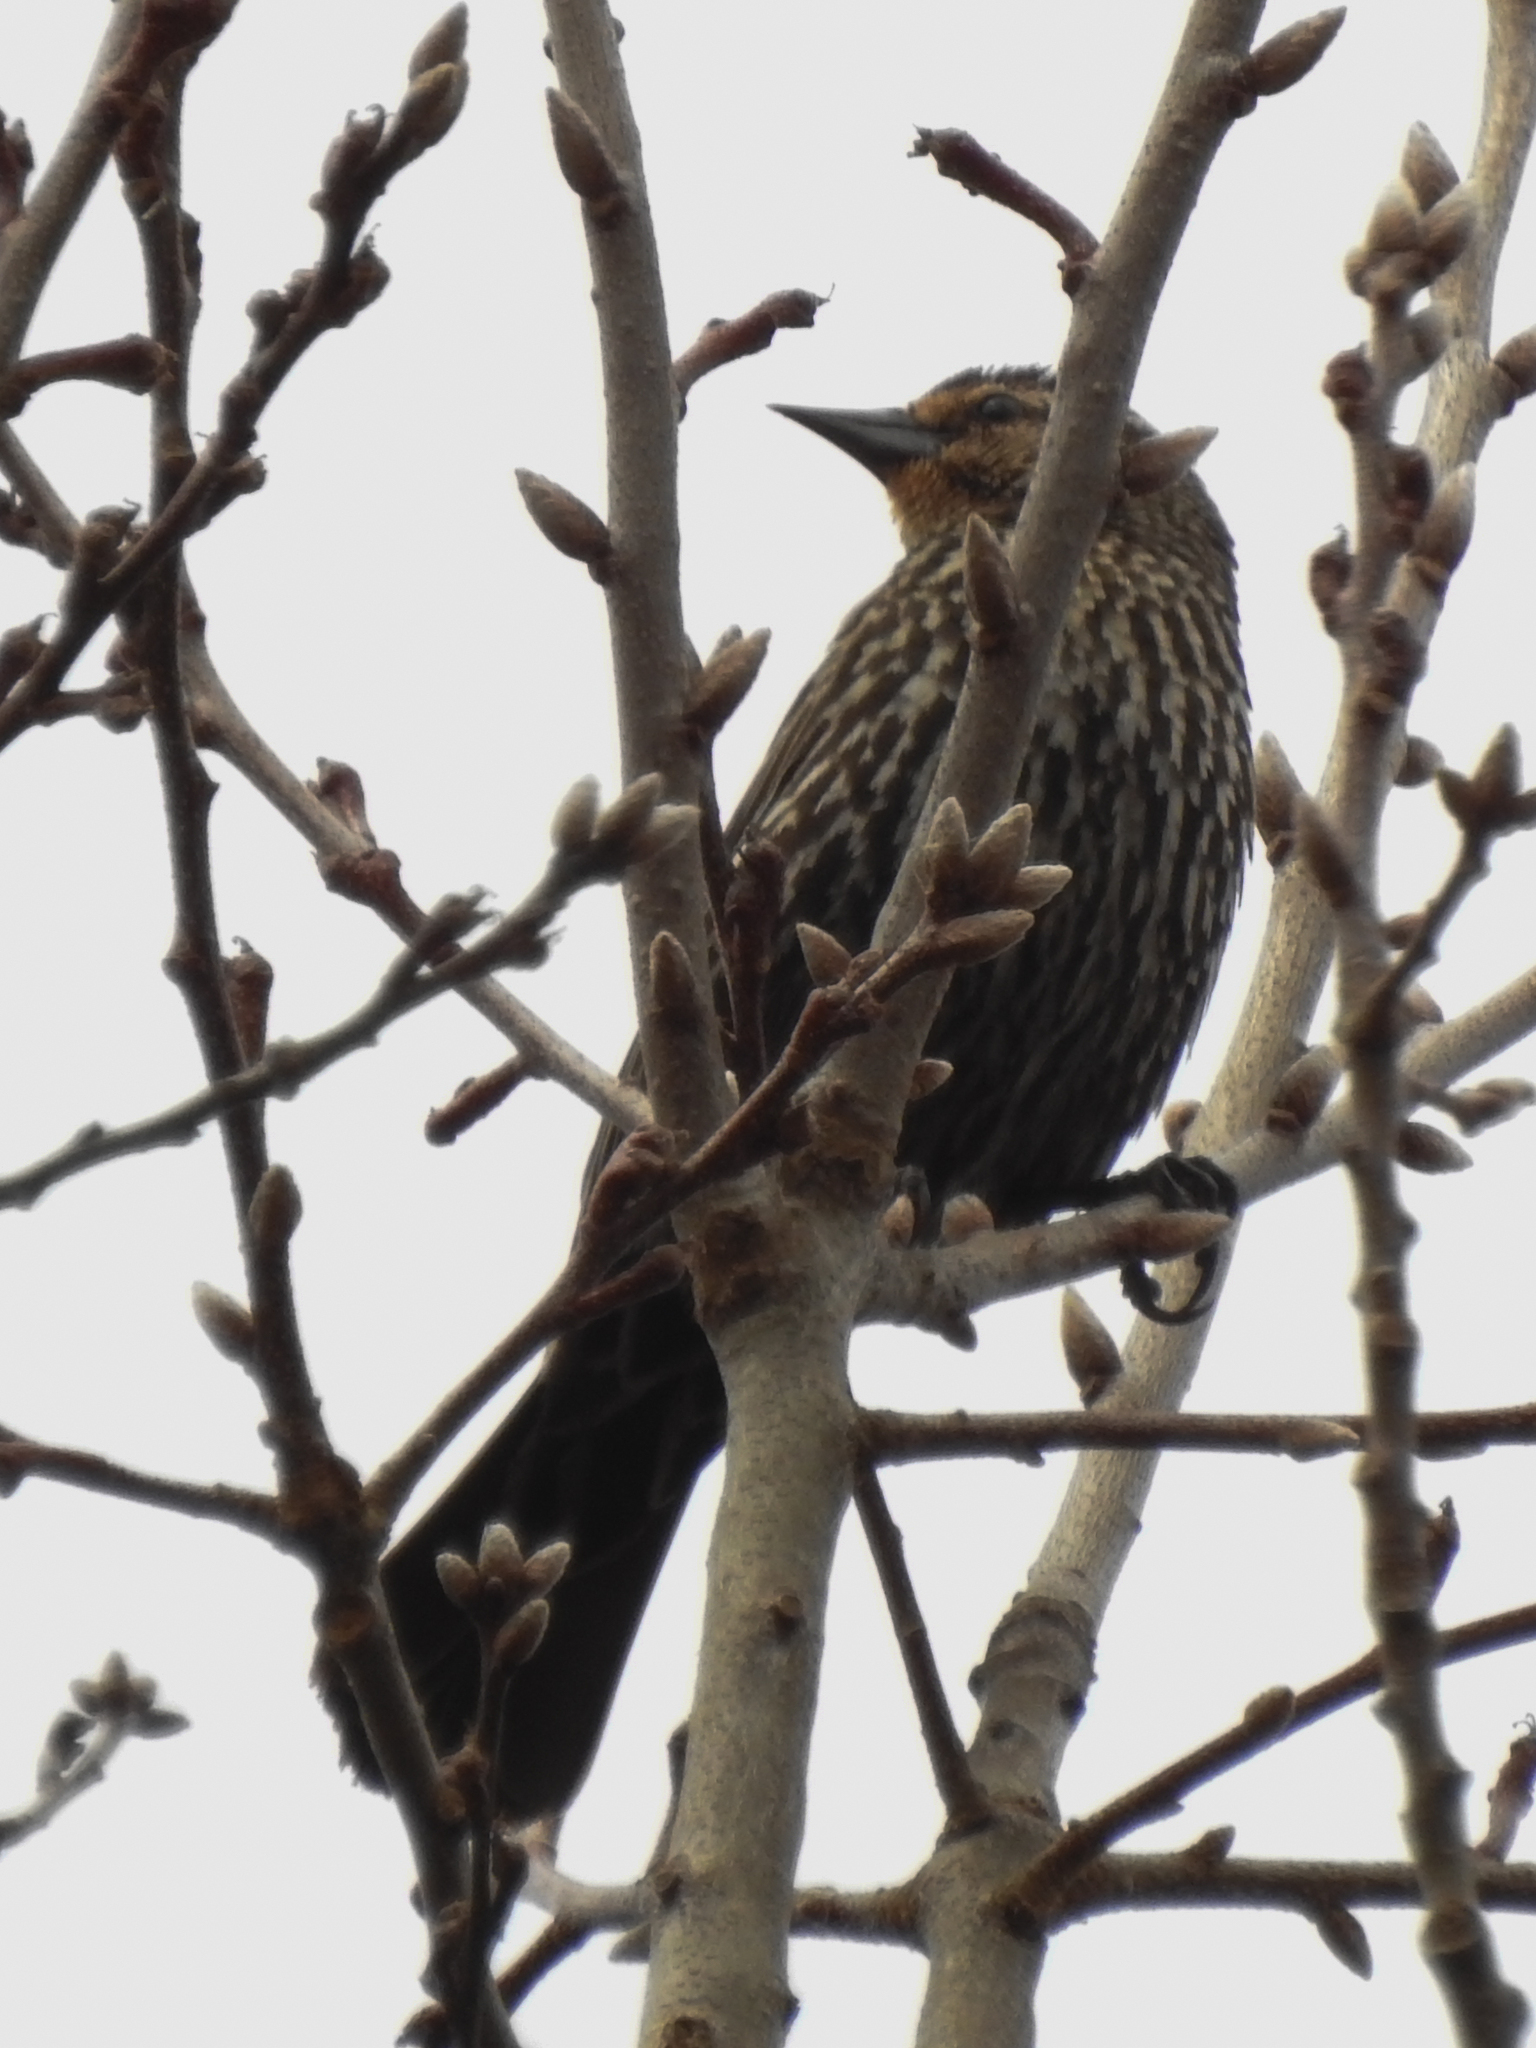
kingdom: Animalia
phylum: Chordata
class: Aves
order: Passeriformes
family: Icteridae
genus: Agelaius
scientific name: Agelaius phoeniceus
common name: Red-winged blackbird
